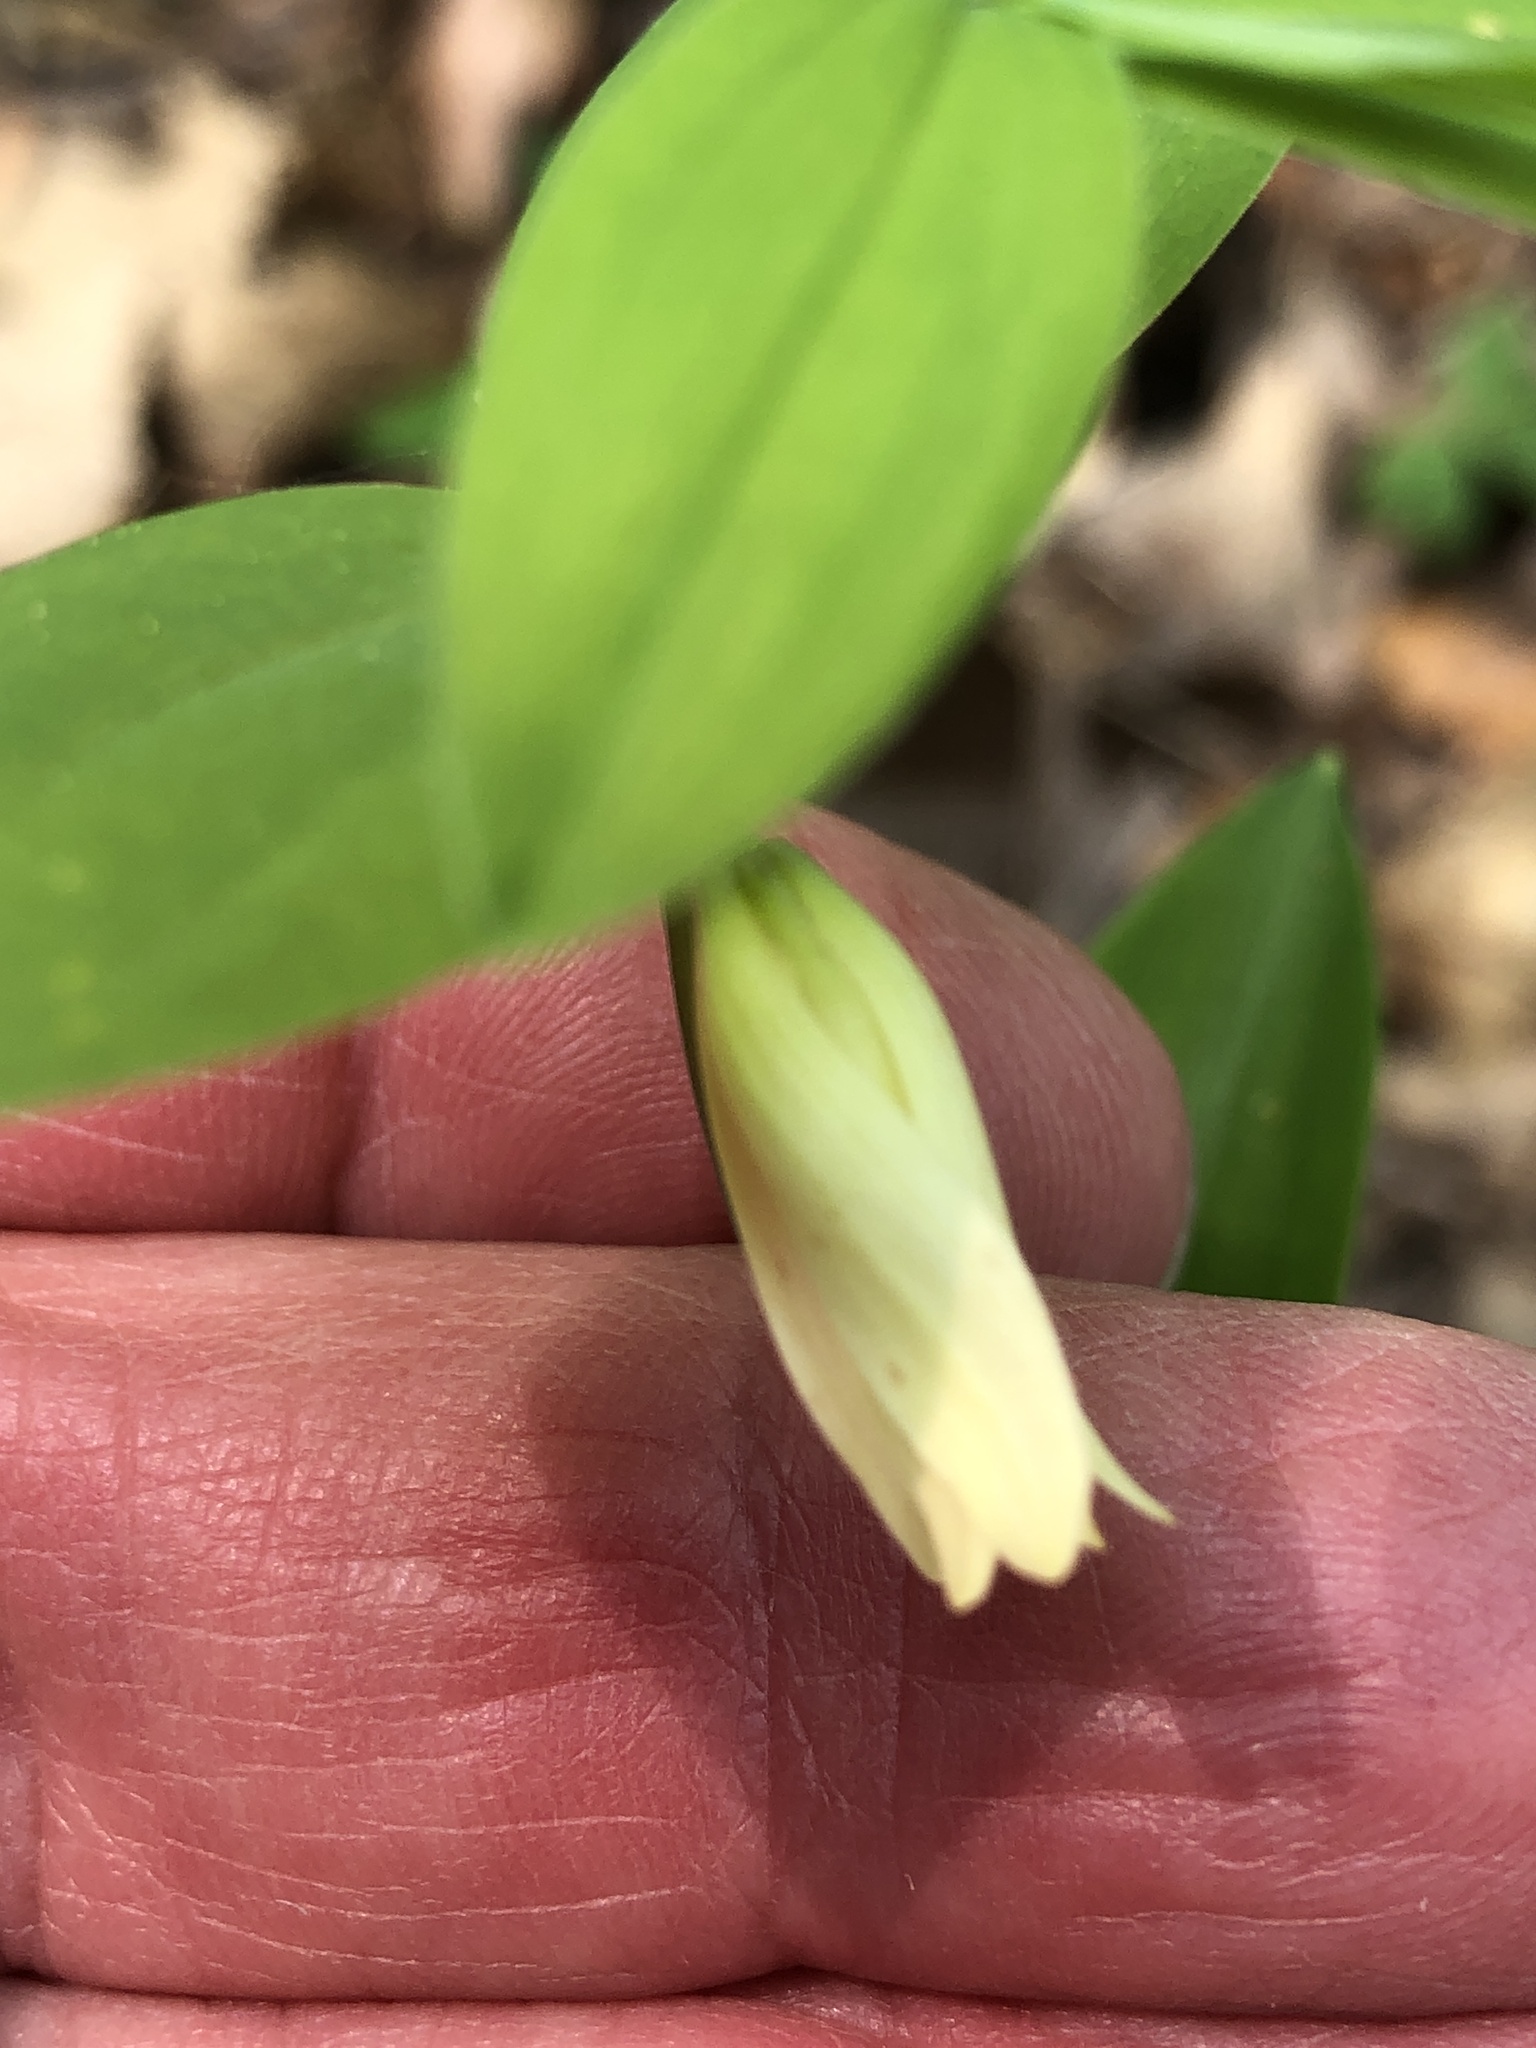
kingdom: Plantae
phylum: Tracheophyta
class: Liliopsida
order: Liliales
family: Colchicaceae
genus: Uvularia
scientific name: Uvularia sessilifolia
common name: Straw-lily
